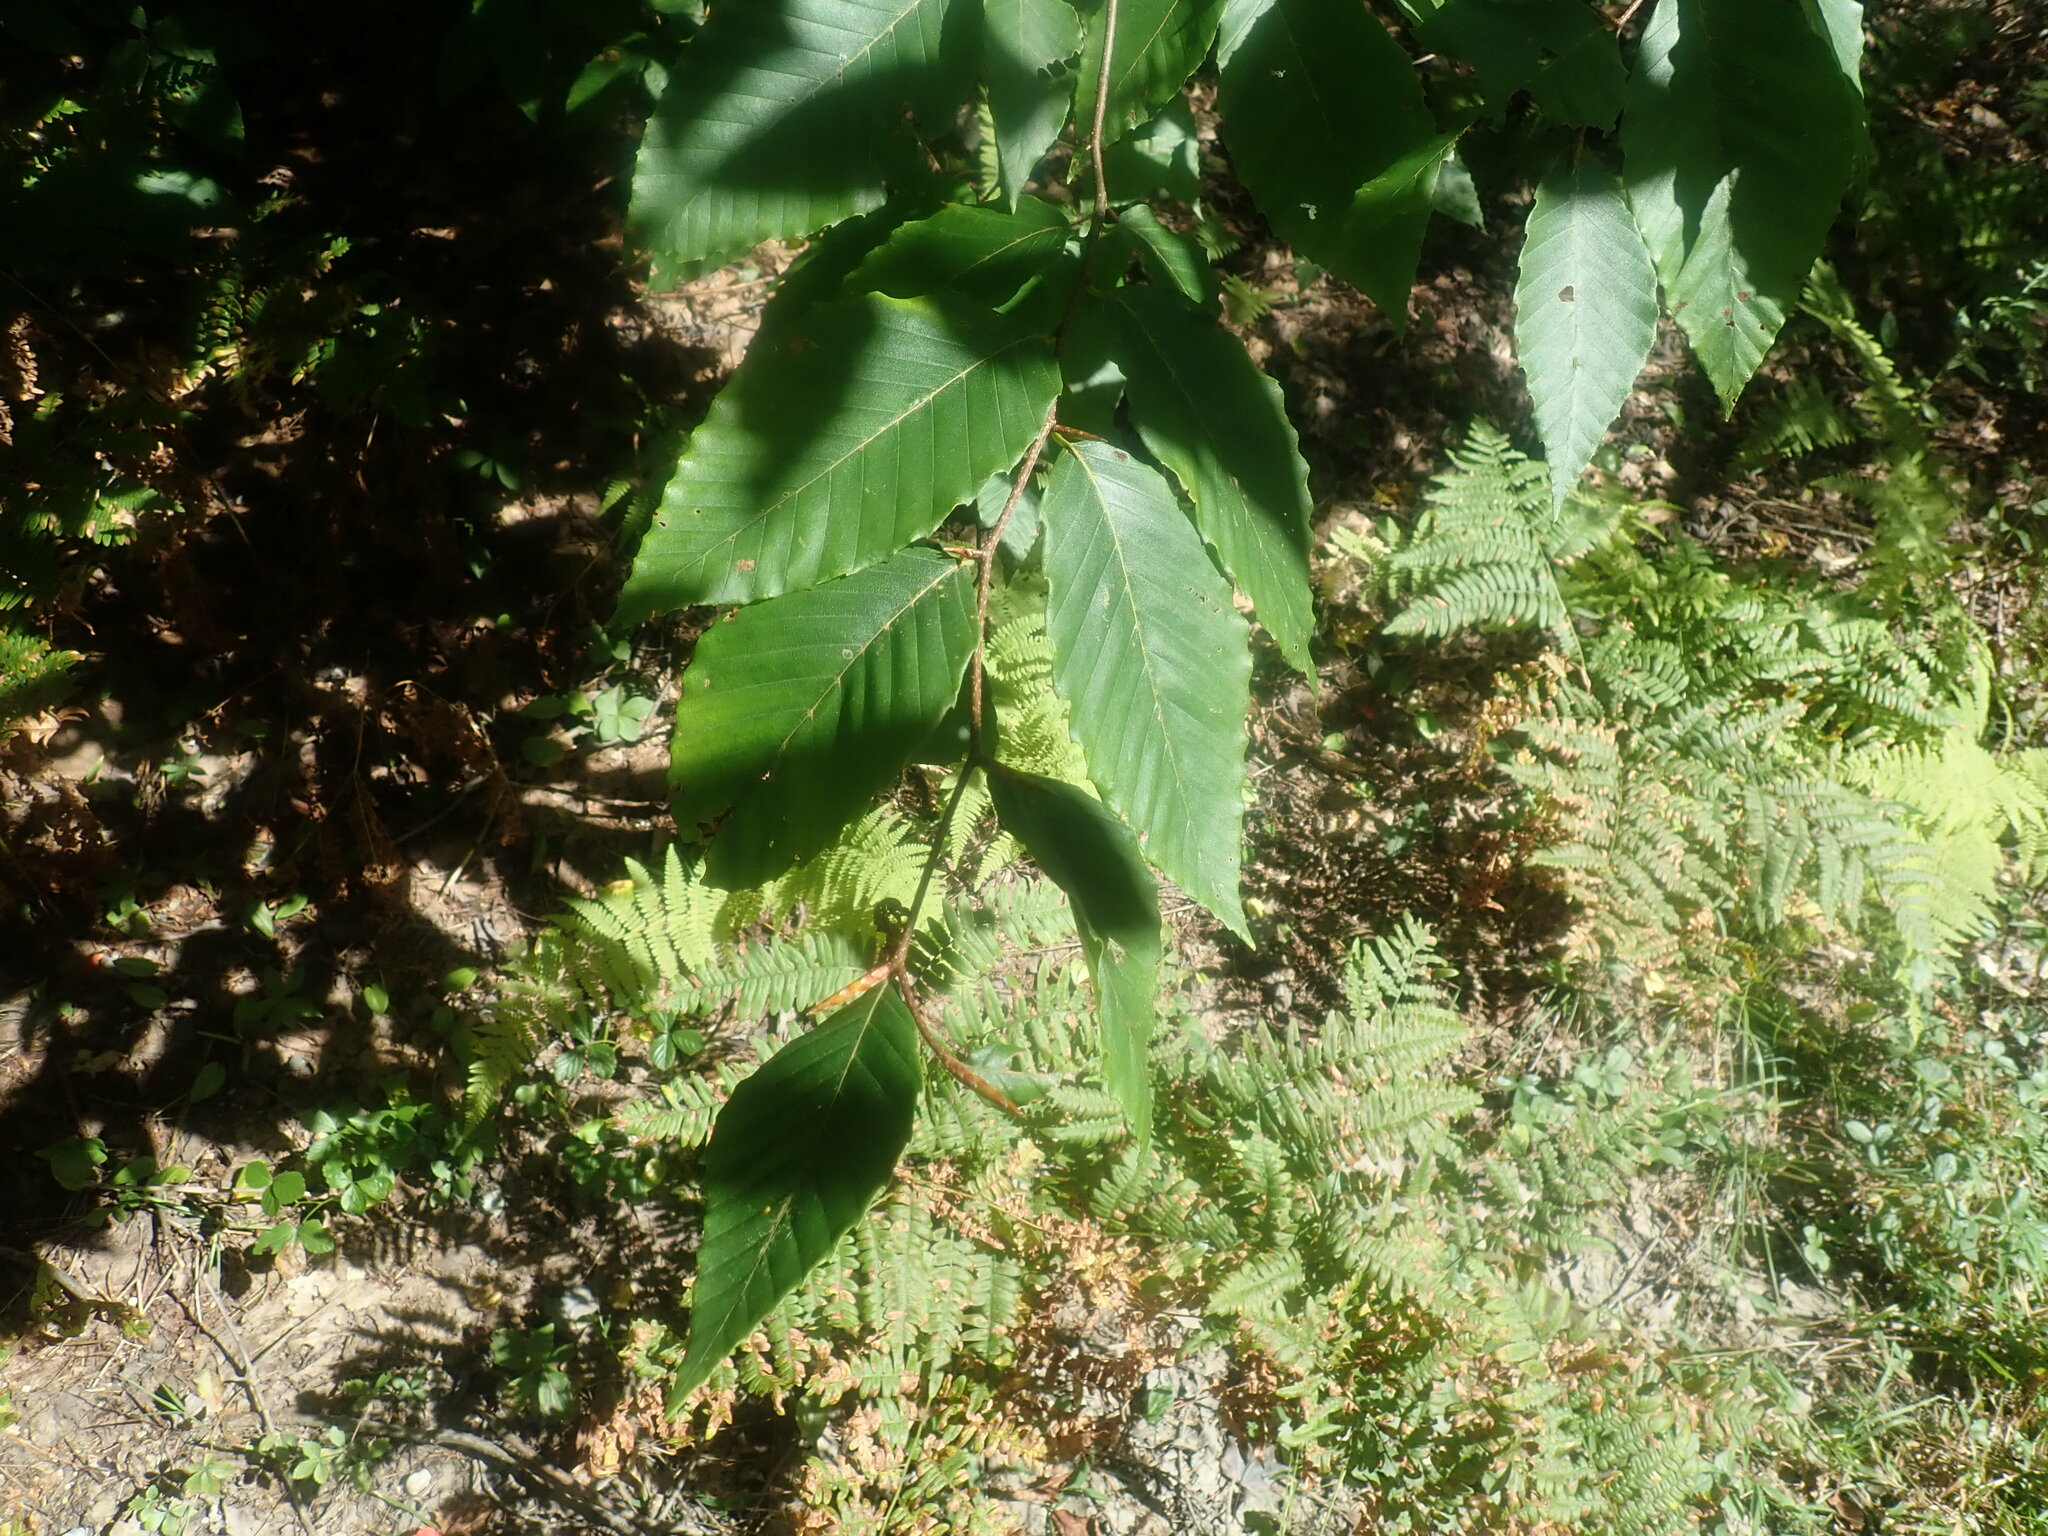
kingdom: Plantae
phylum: Tracheophyta
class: Magnoliopsida
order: Fagales
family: Fagaceae
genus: Fagus
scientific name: Fagus grandifolia
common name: American beech
